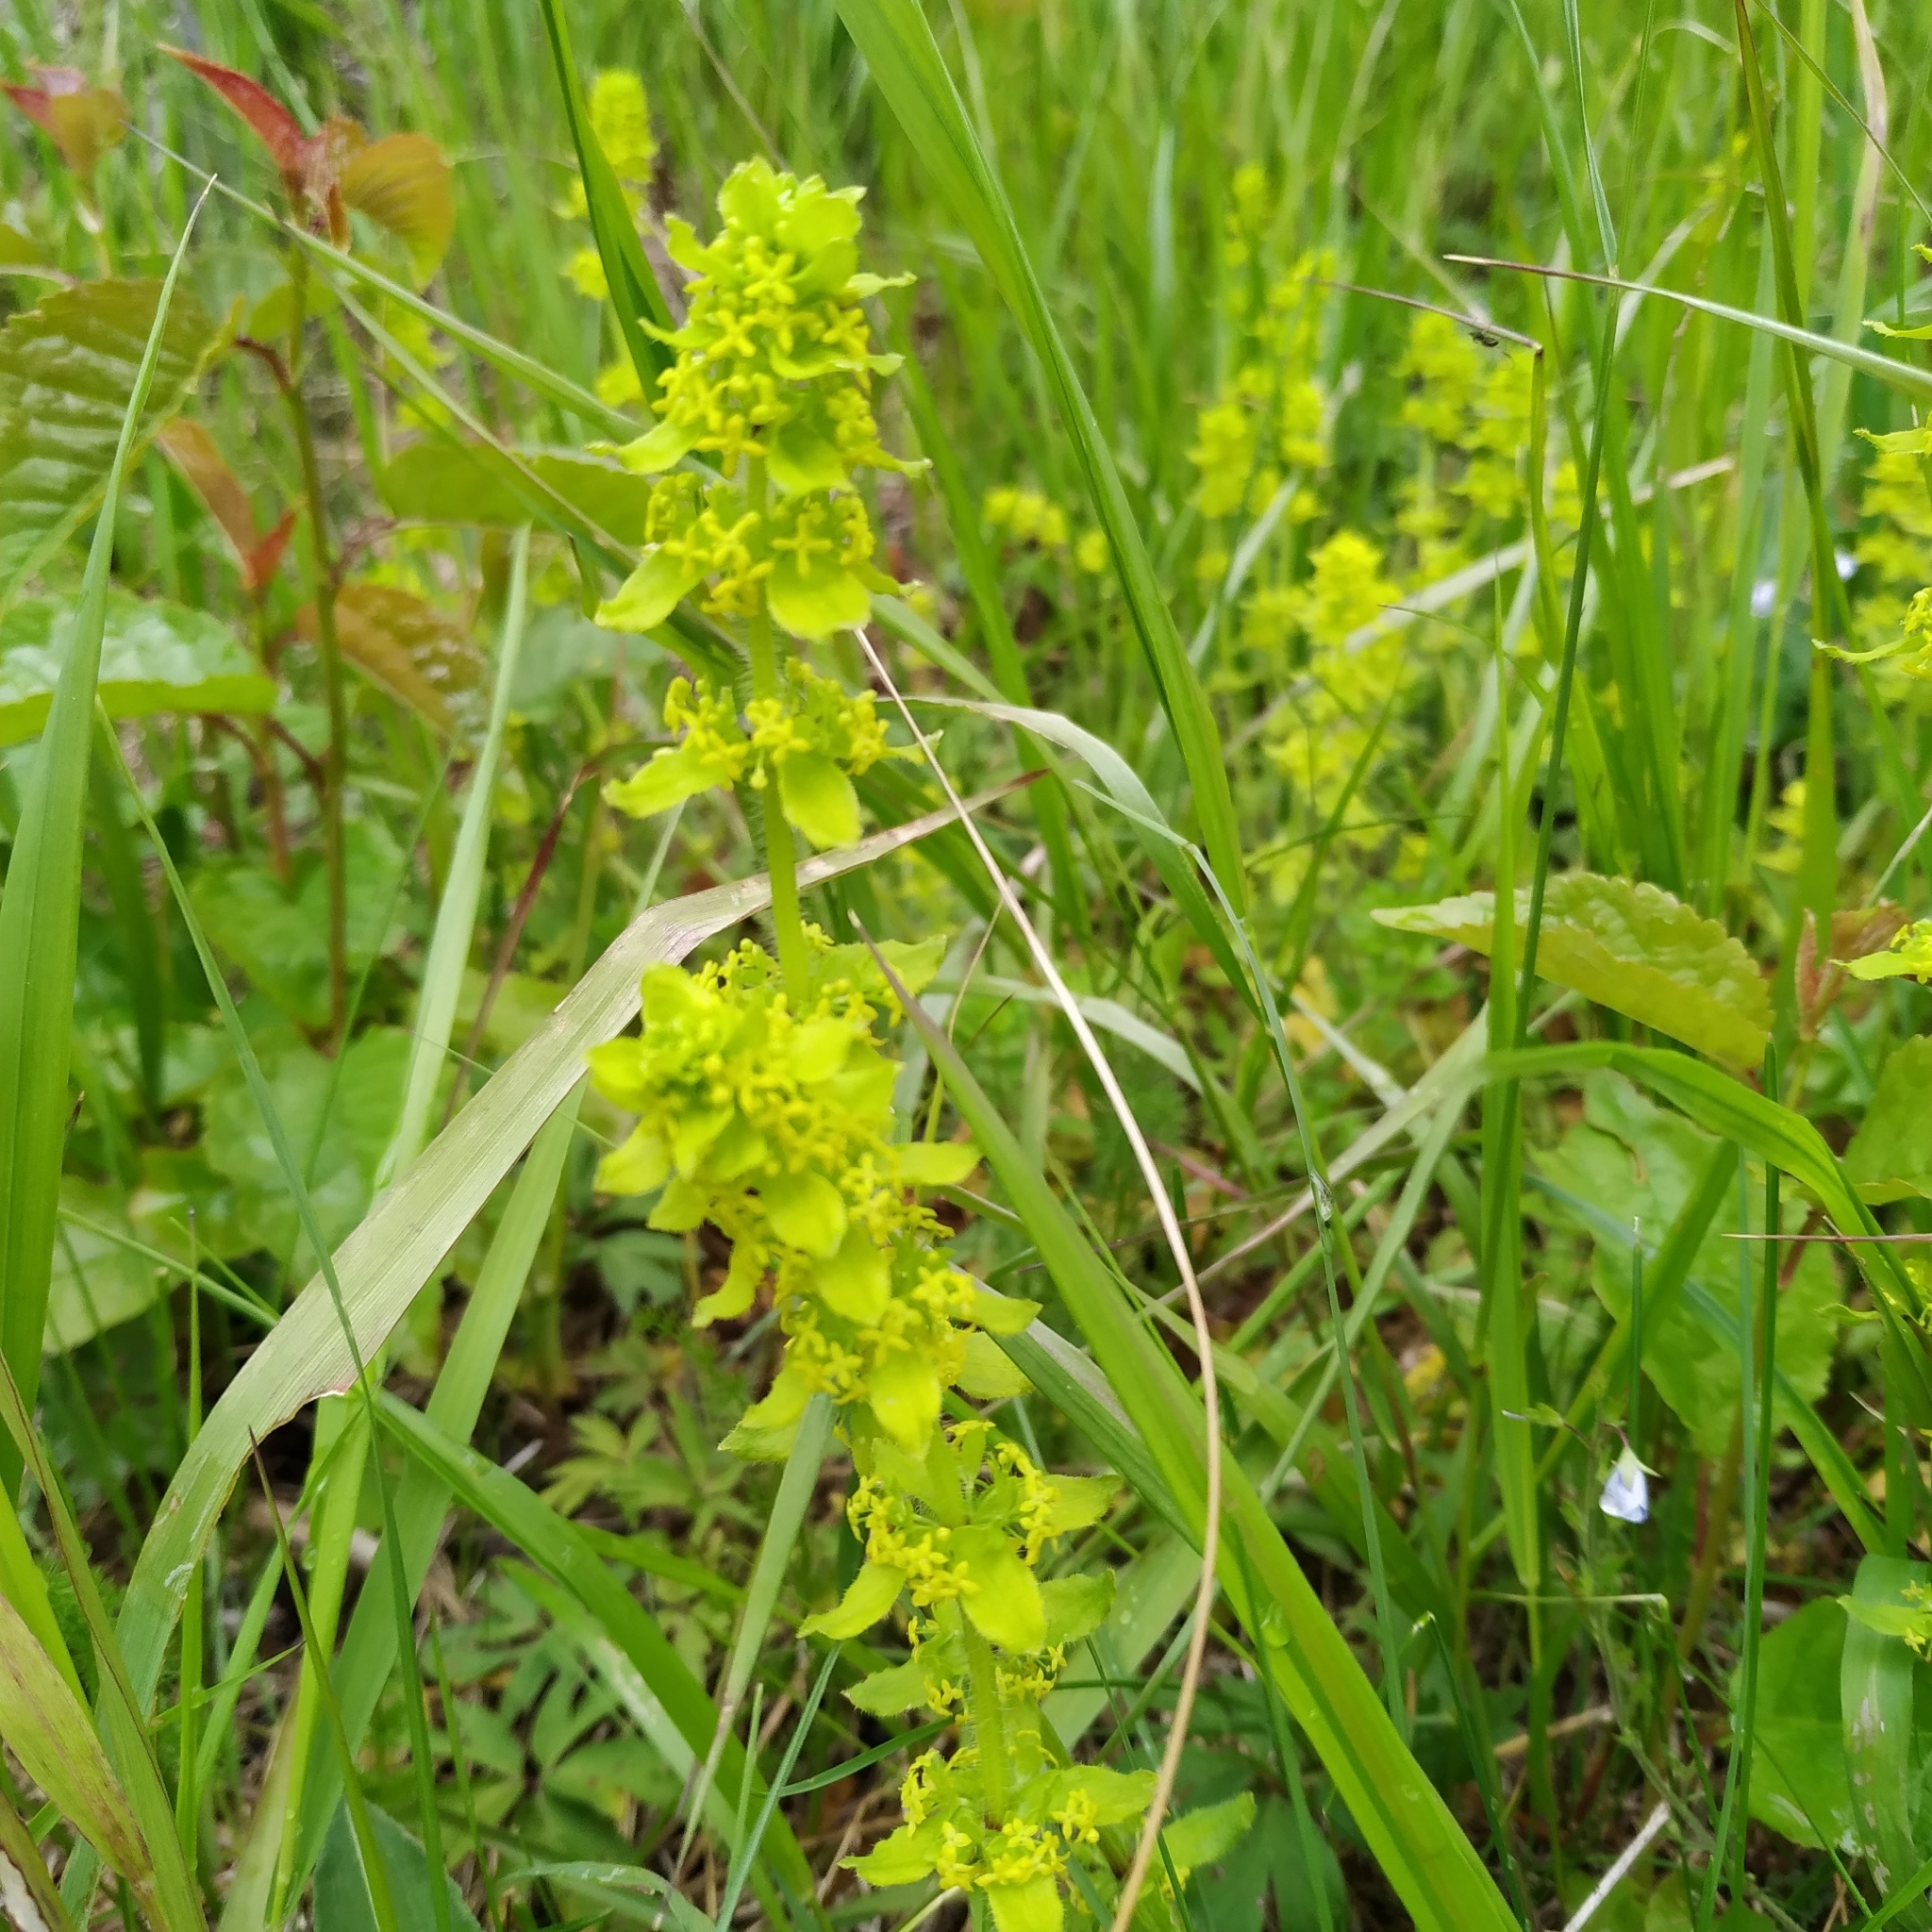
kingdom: Plantae
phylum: Tracheophyta
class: Magnoliopsida
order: Gentianales
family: Rubiaceae
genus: Cruciata
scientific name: Cruciata laevipes
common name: Crosswort
